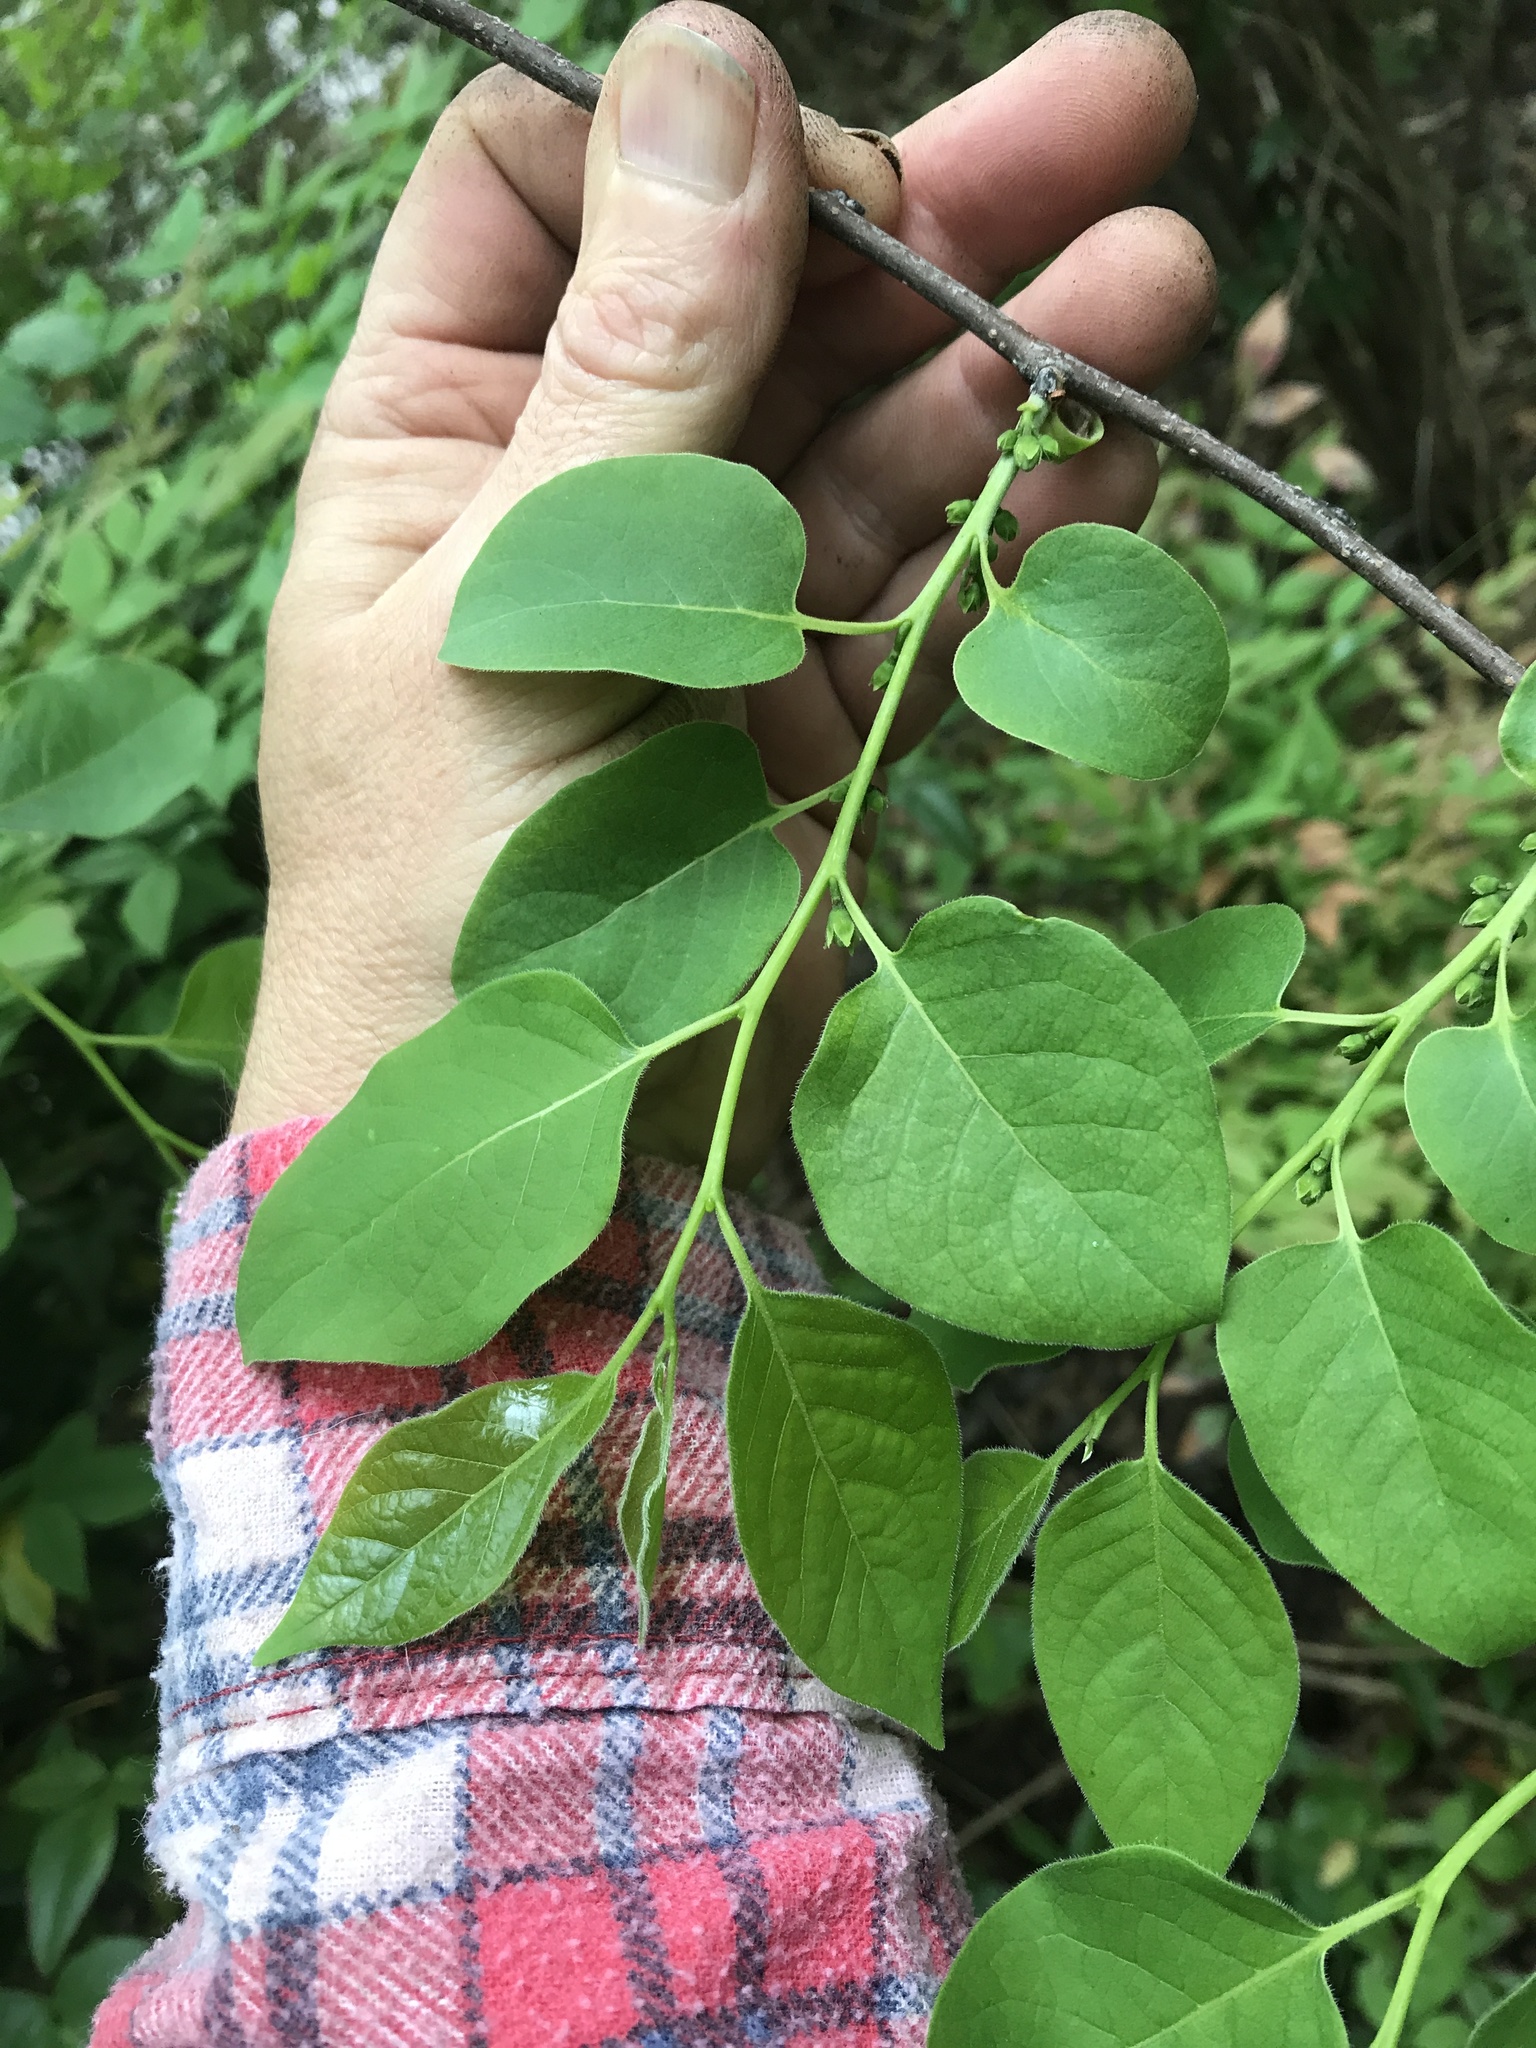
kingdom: Plantae
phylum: Tracheophyta
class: Magnoliopsida
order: Ericales
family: Ebenaceae
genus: Diospyros
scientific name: Diospyros virginiana
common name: Persimmon
